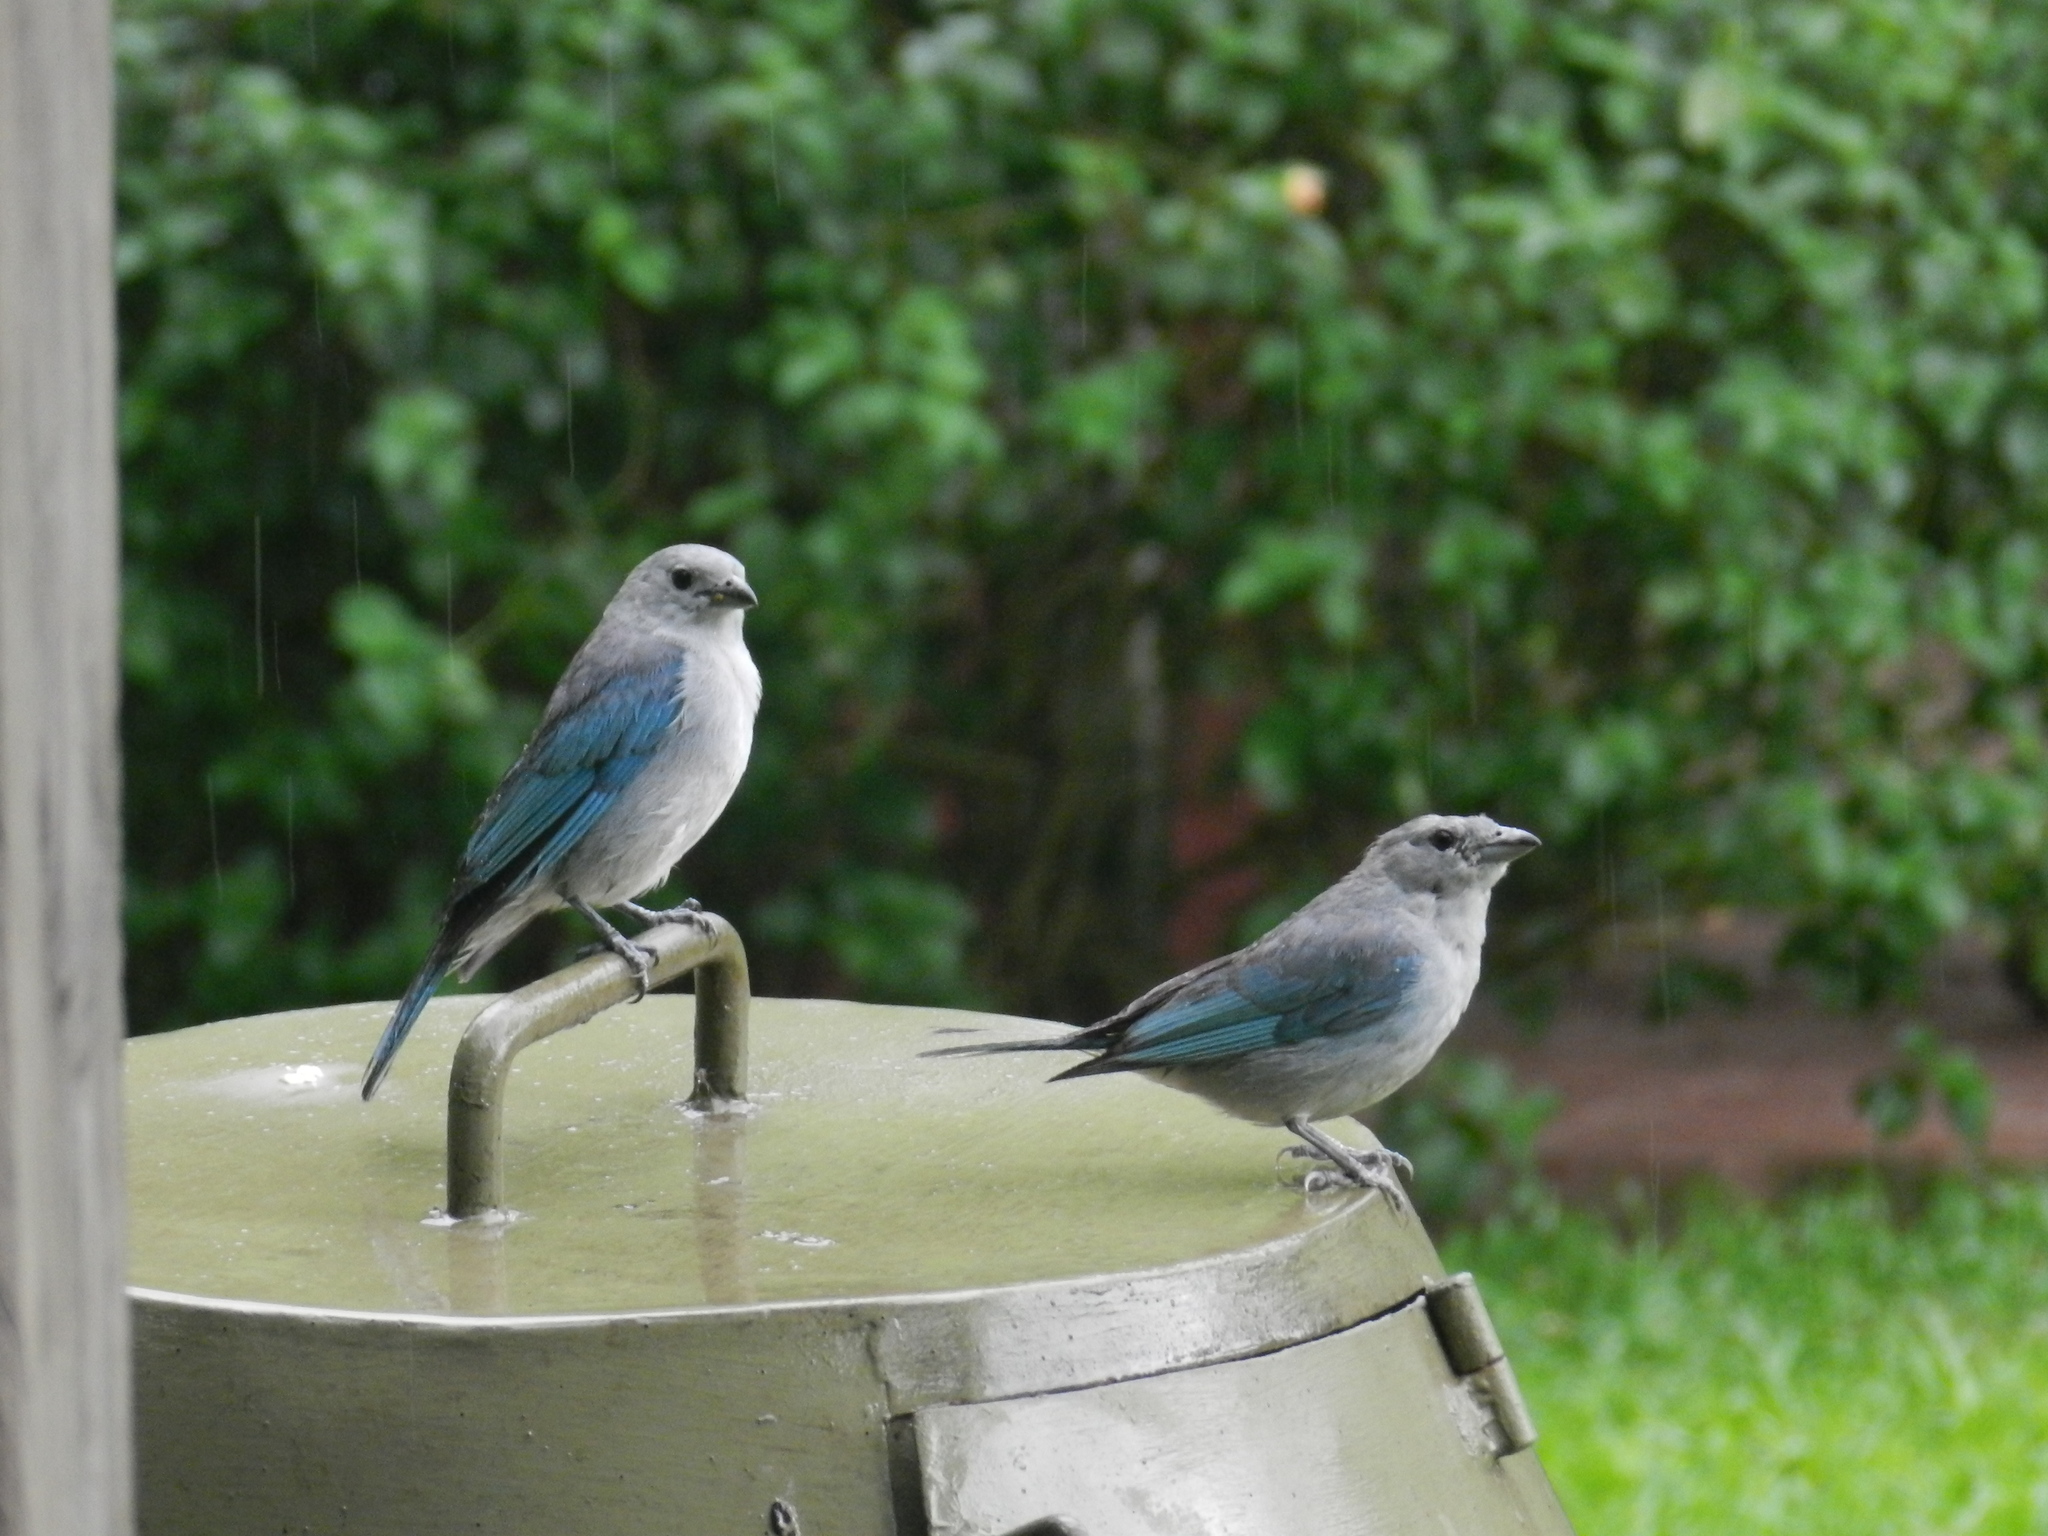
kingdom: Animalia
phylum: Chordata
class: Aves
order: Passeriformes
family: Thraupidae
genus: Thraupis
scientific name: Thraupis sayaca
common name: Sayaca tanager
